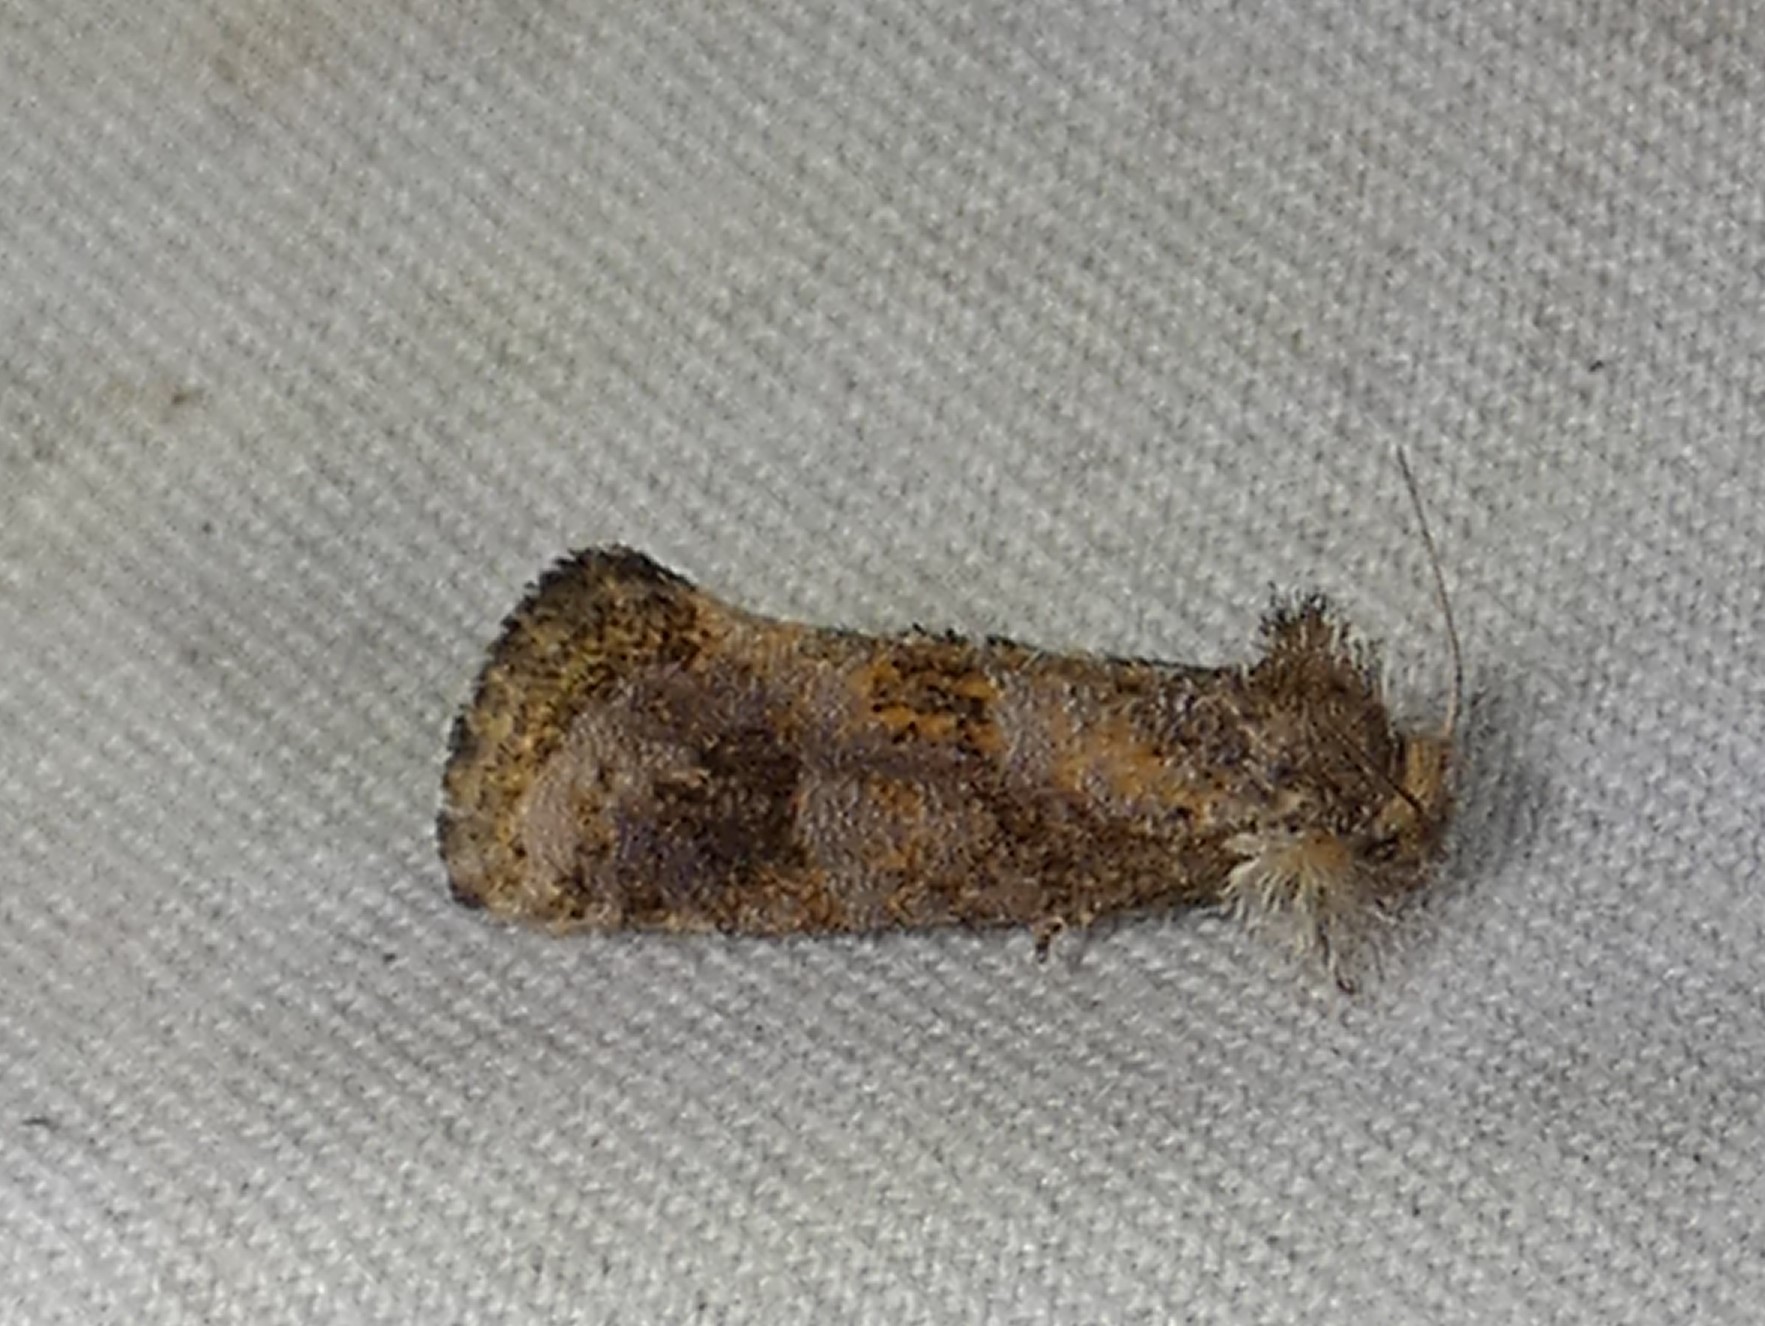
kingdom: Animalia
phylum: Arthropoda
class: Insecta
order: Lepidoptera
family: Tineidae
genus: Acrolophus
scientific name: Acrolophus panamae
